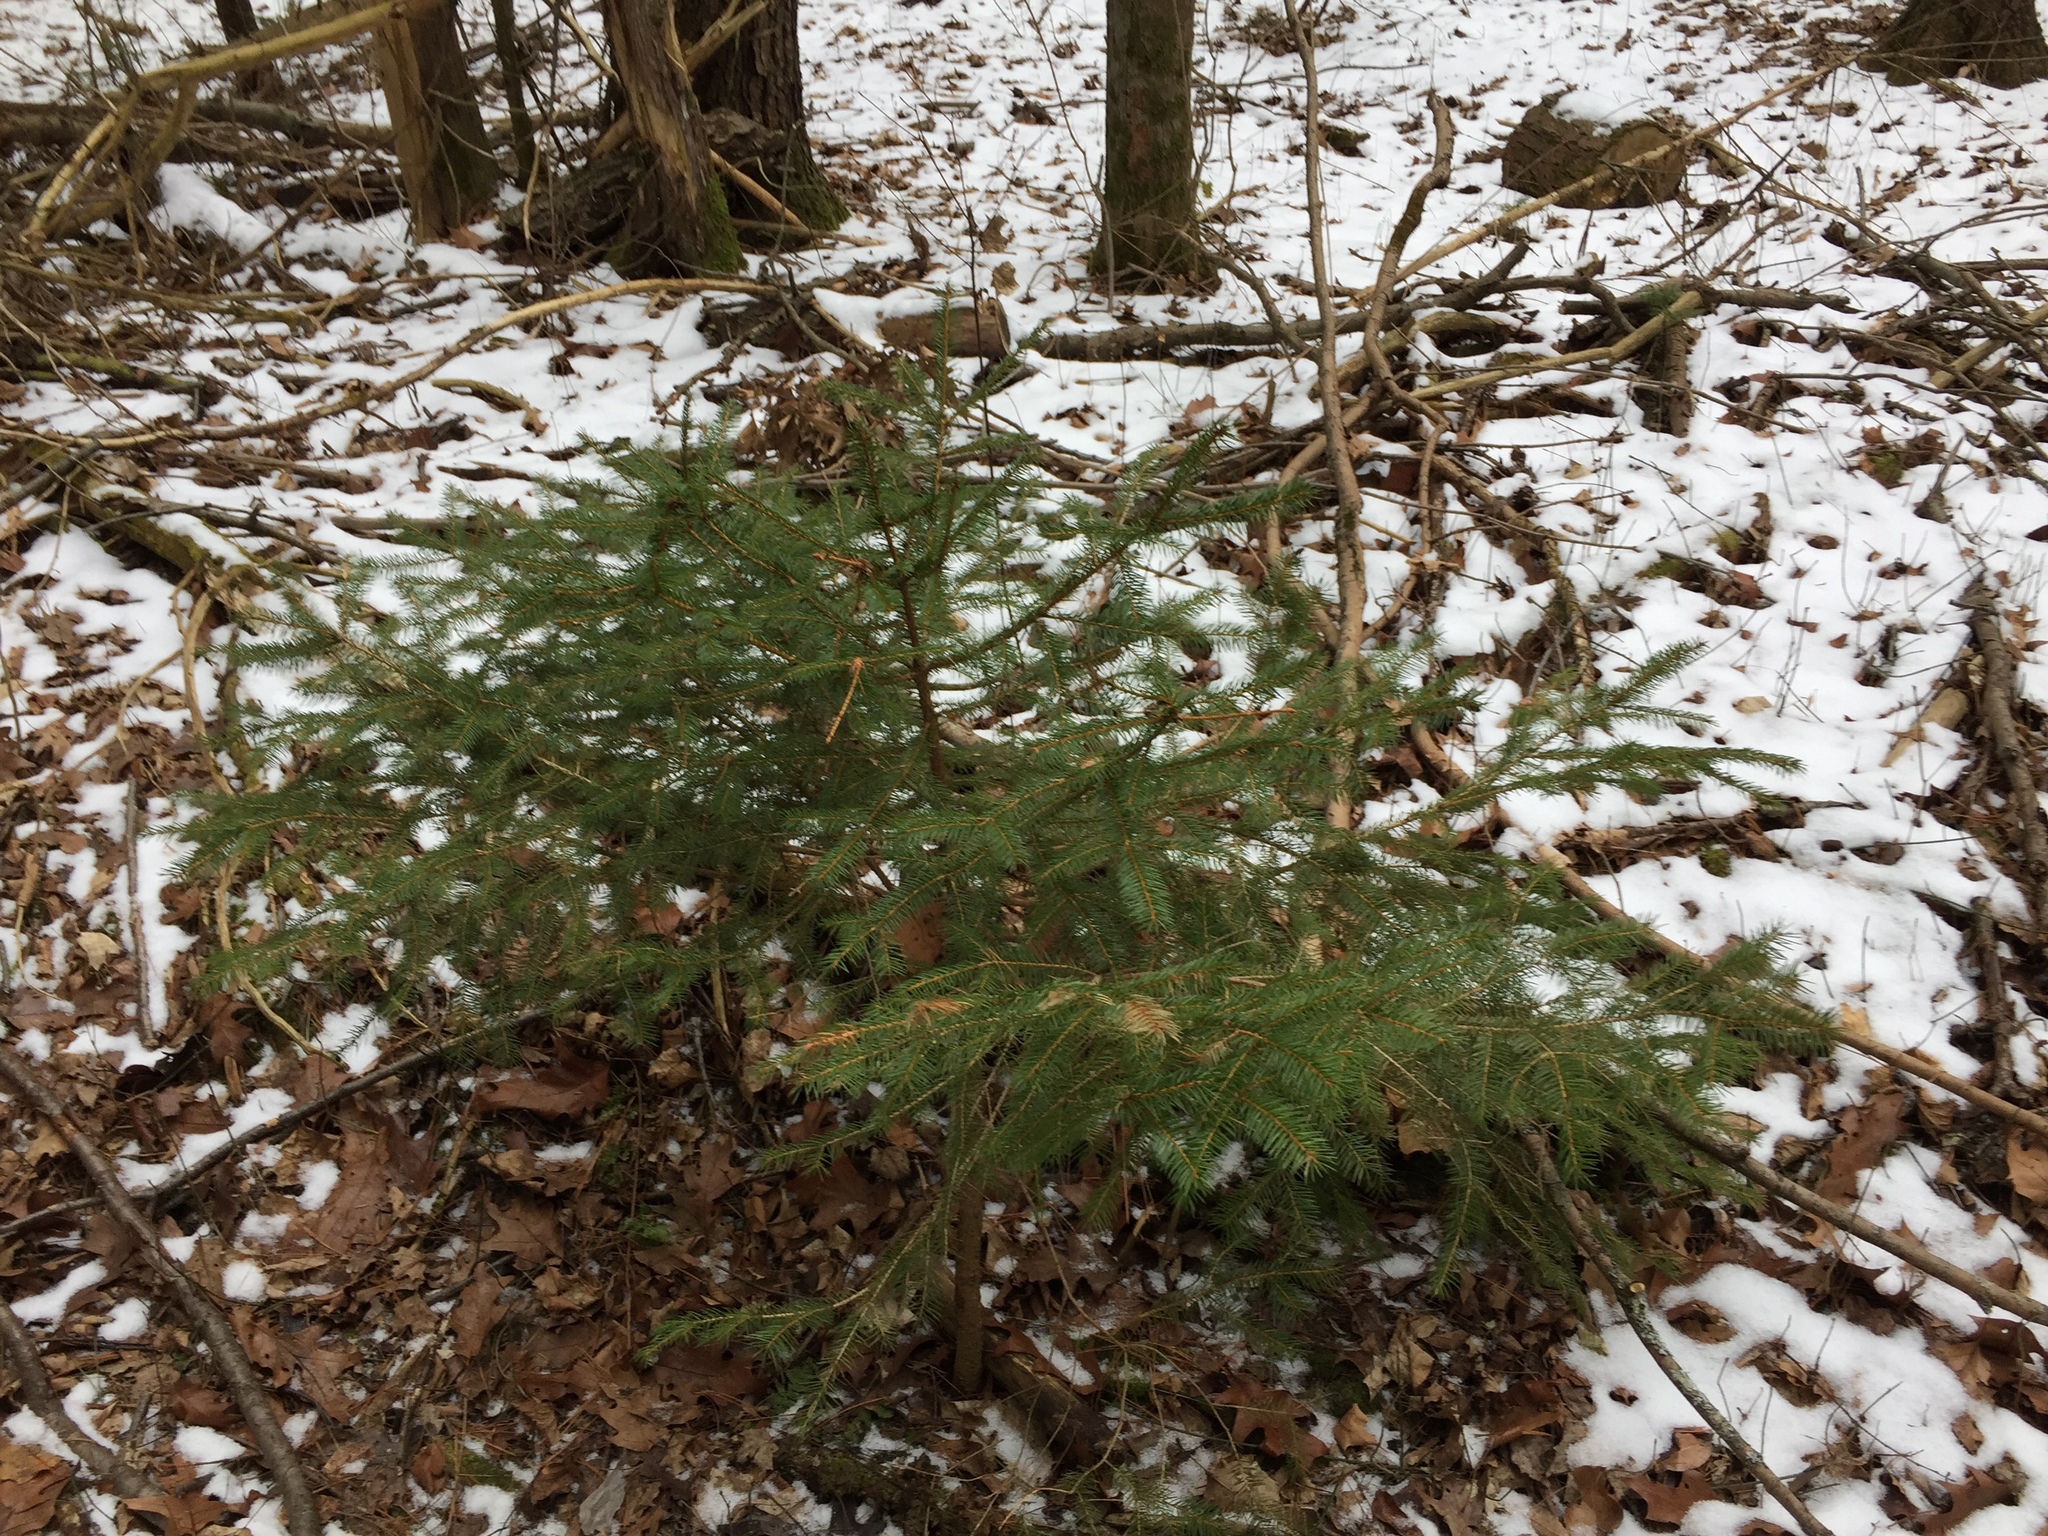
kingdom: Plantae
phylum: Tracheophyta
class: Pinopsida
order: Pinales
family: Pinaceae
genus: Picea
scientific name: Picea abies
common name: Norway spruce
